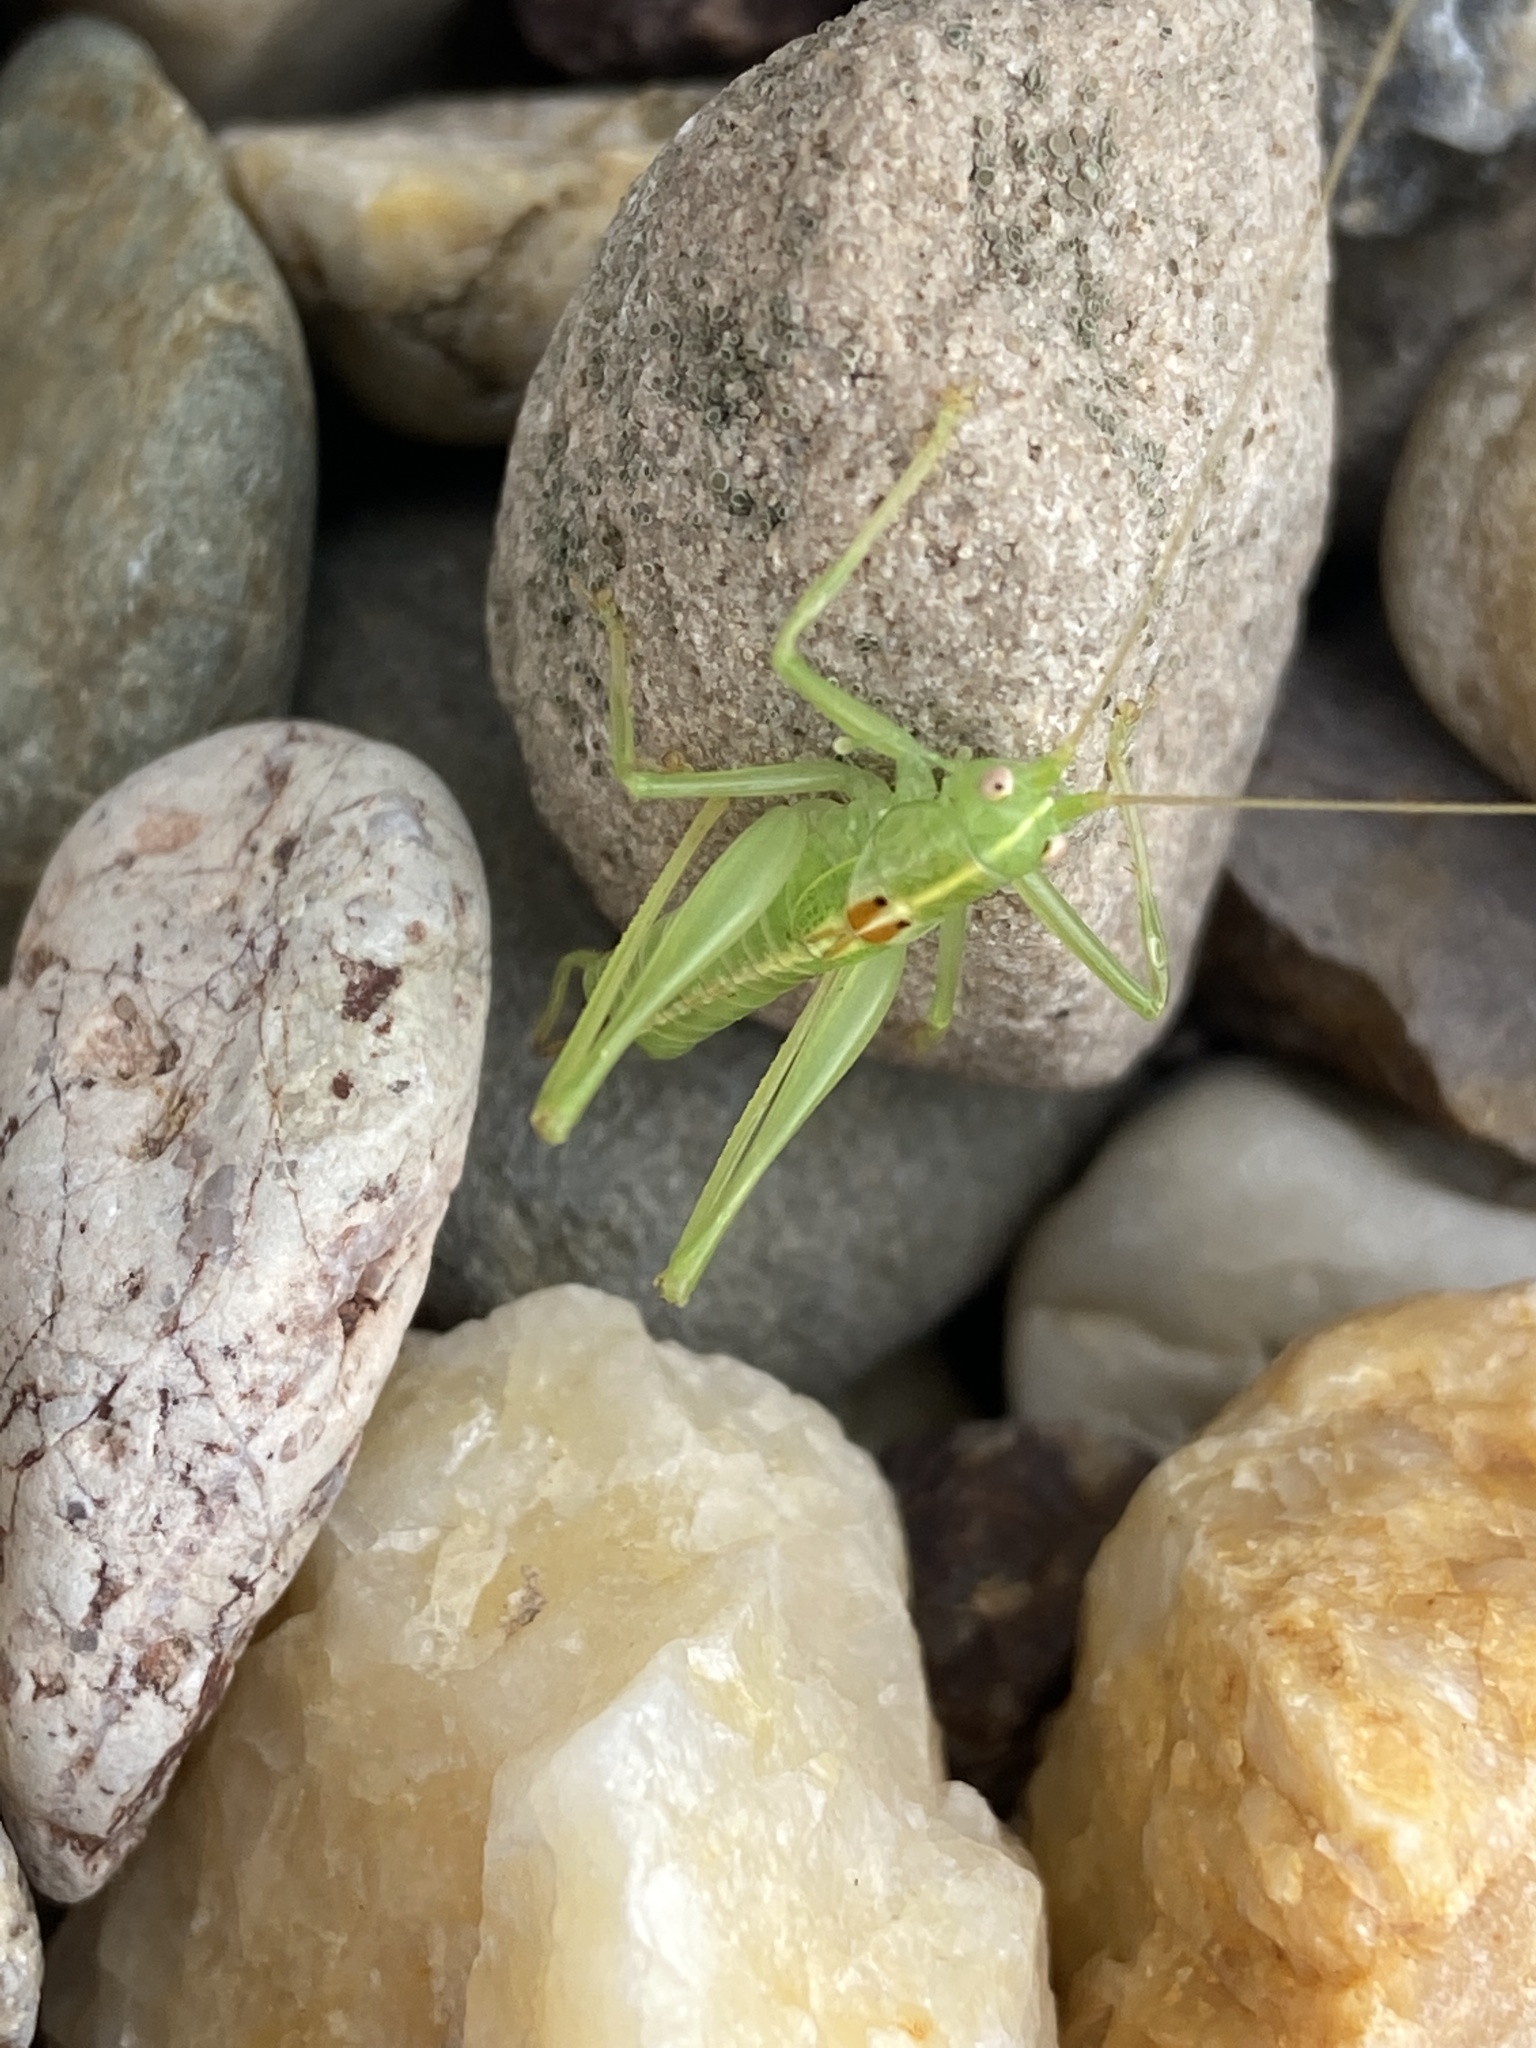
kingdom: Animalia
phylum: Arthropoda
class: Insecta
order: Orthoptera
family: Tettigoniidae
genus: Meconema
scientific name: Meconema meridionale
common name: Southern oak bush-cricket
